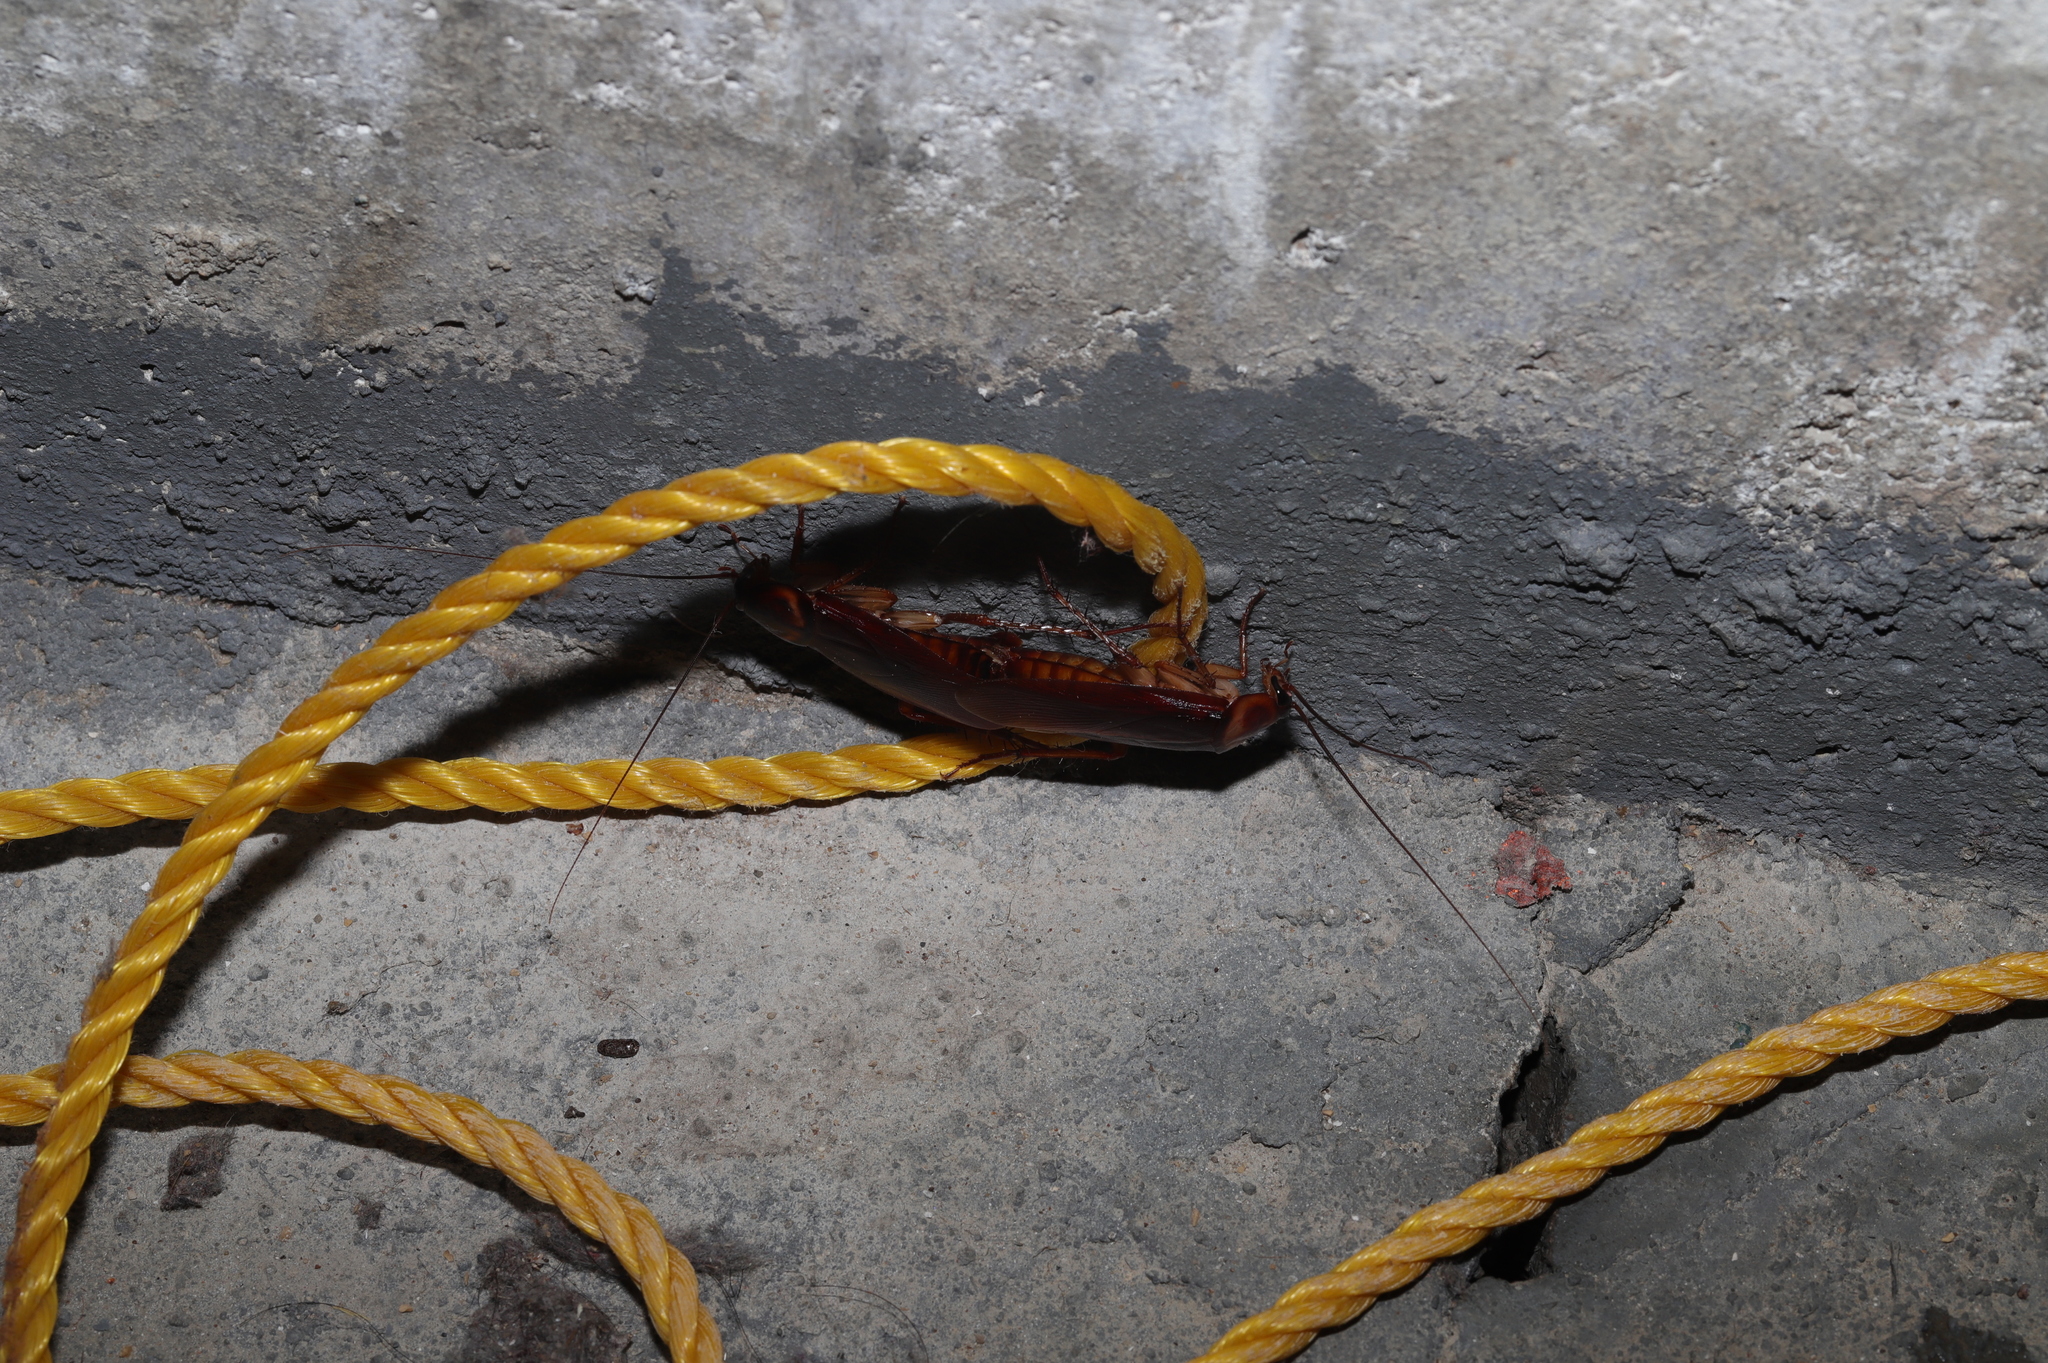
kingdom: Animalia
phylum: Arthropoda
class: Insecta
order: Blattodea
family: Blattidae
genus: Periplaneta
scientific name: Periplaneta americana
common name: American cockroach
